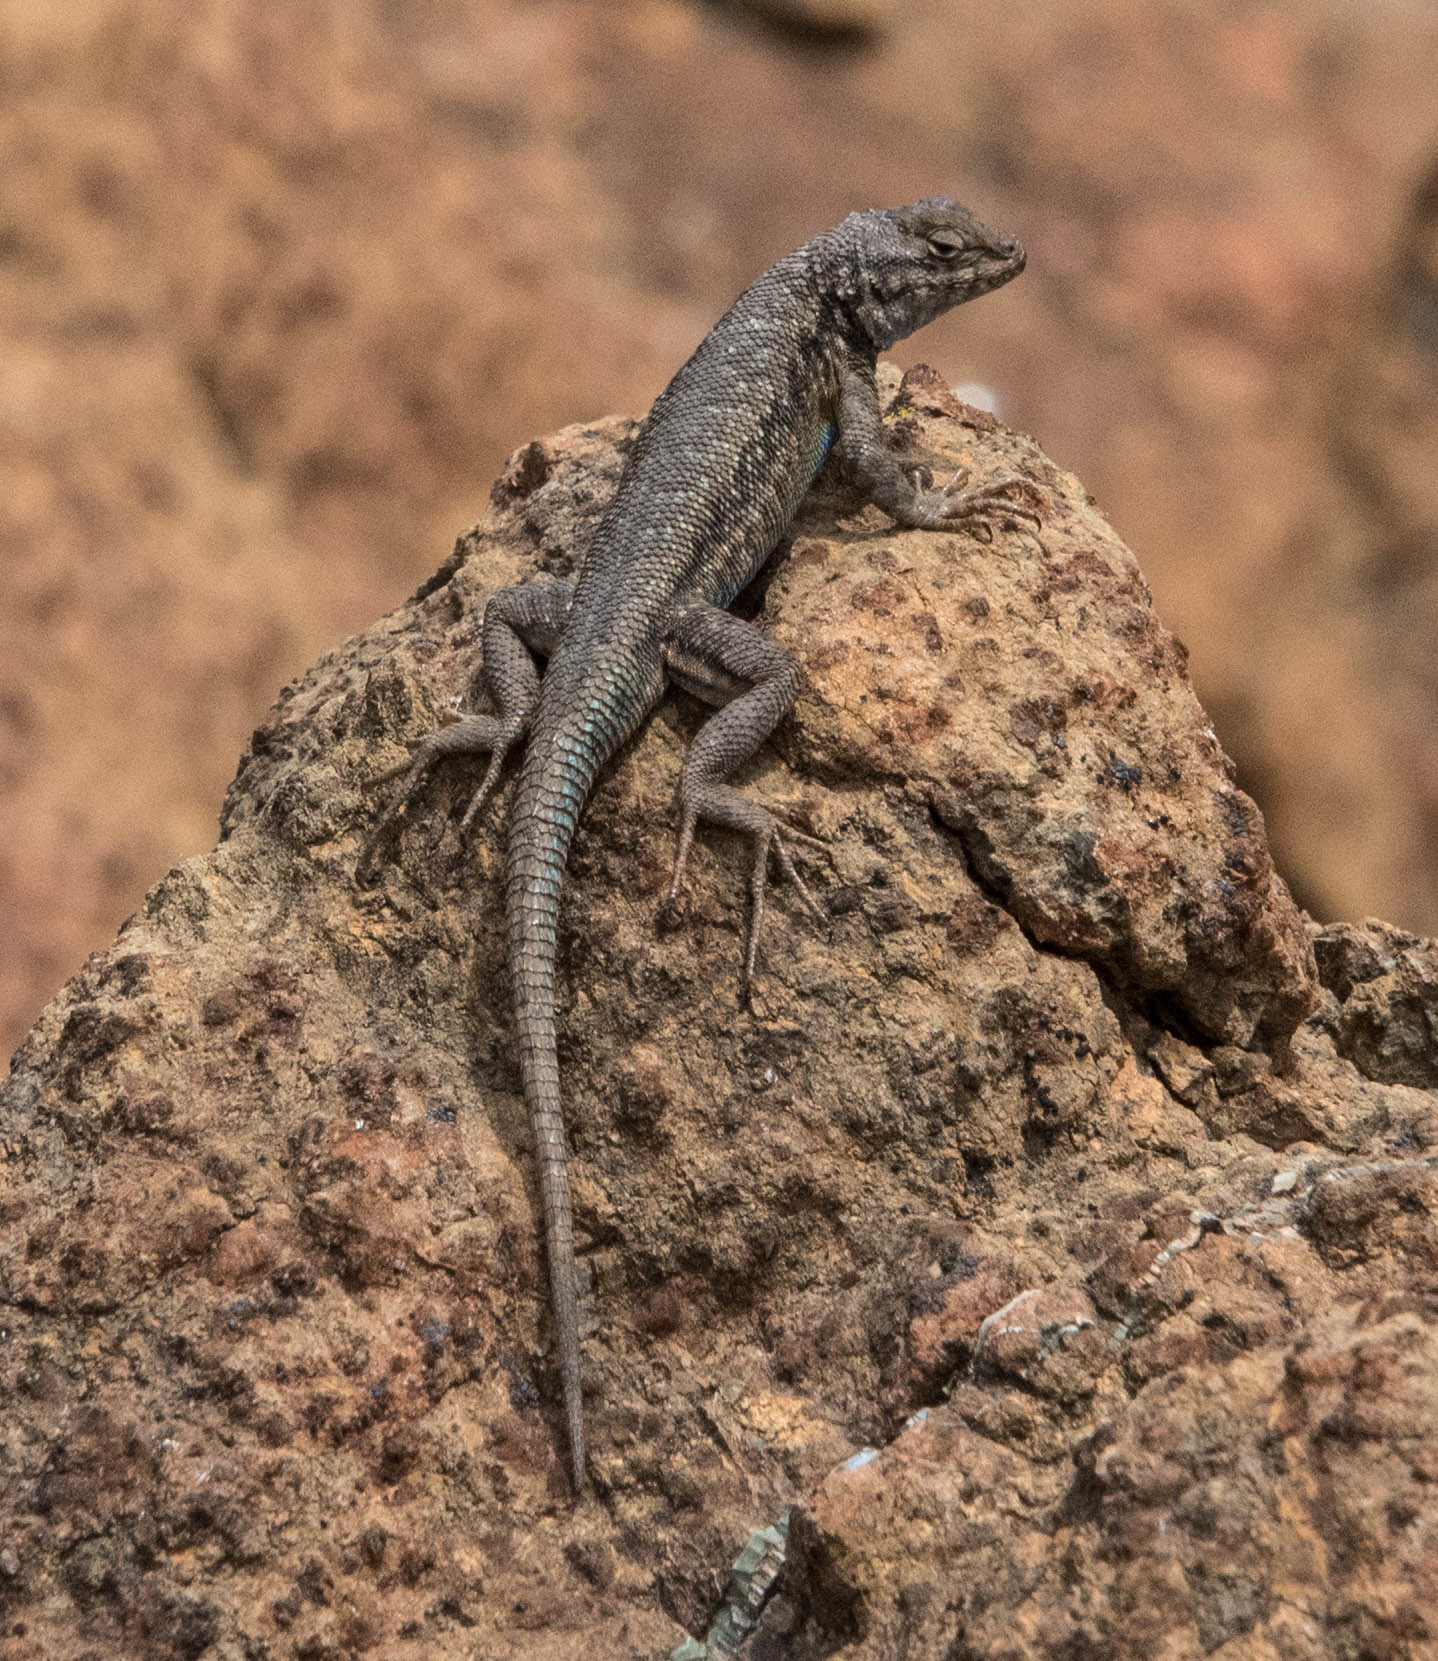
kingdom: Animalia
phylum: Chordata
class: Squamata
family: Phrynosomatidae
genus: Sceloporus
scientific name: Sceloporus graciosus
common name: Sagebrush lizard
